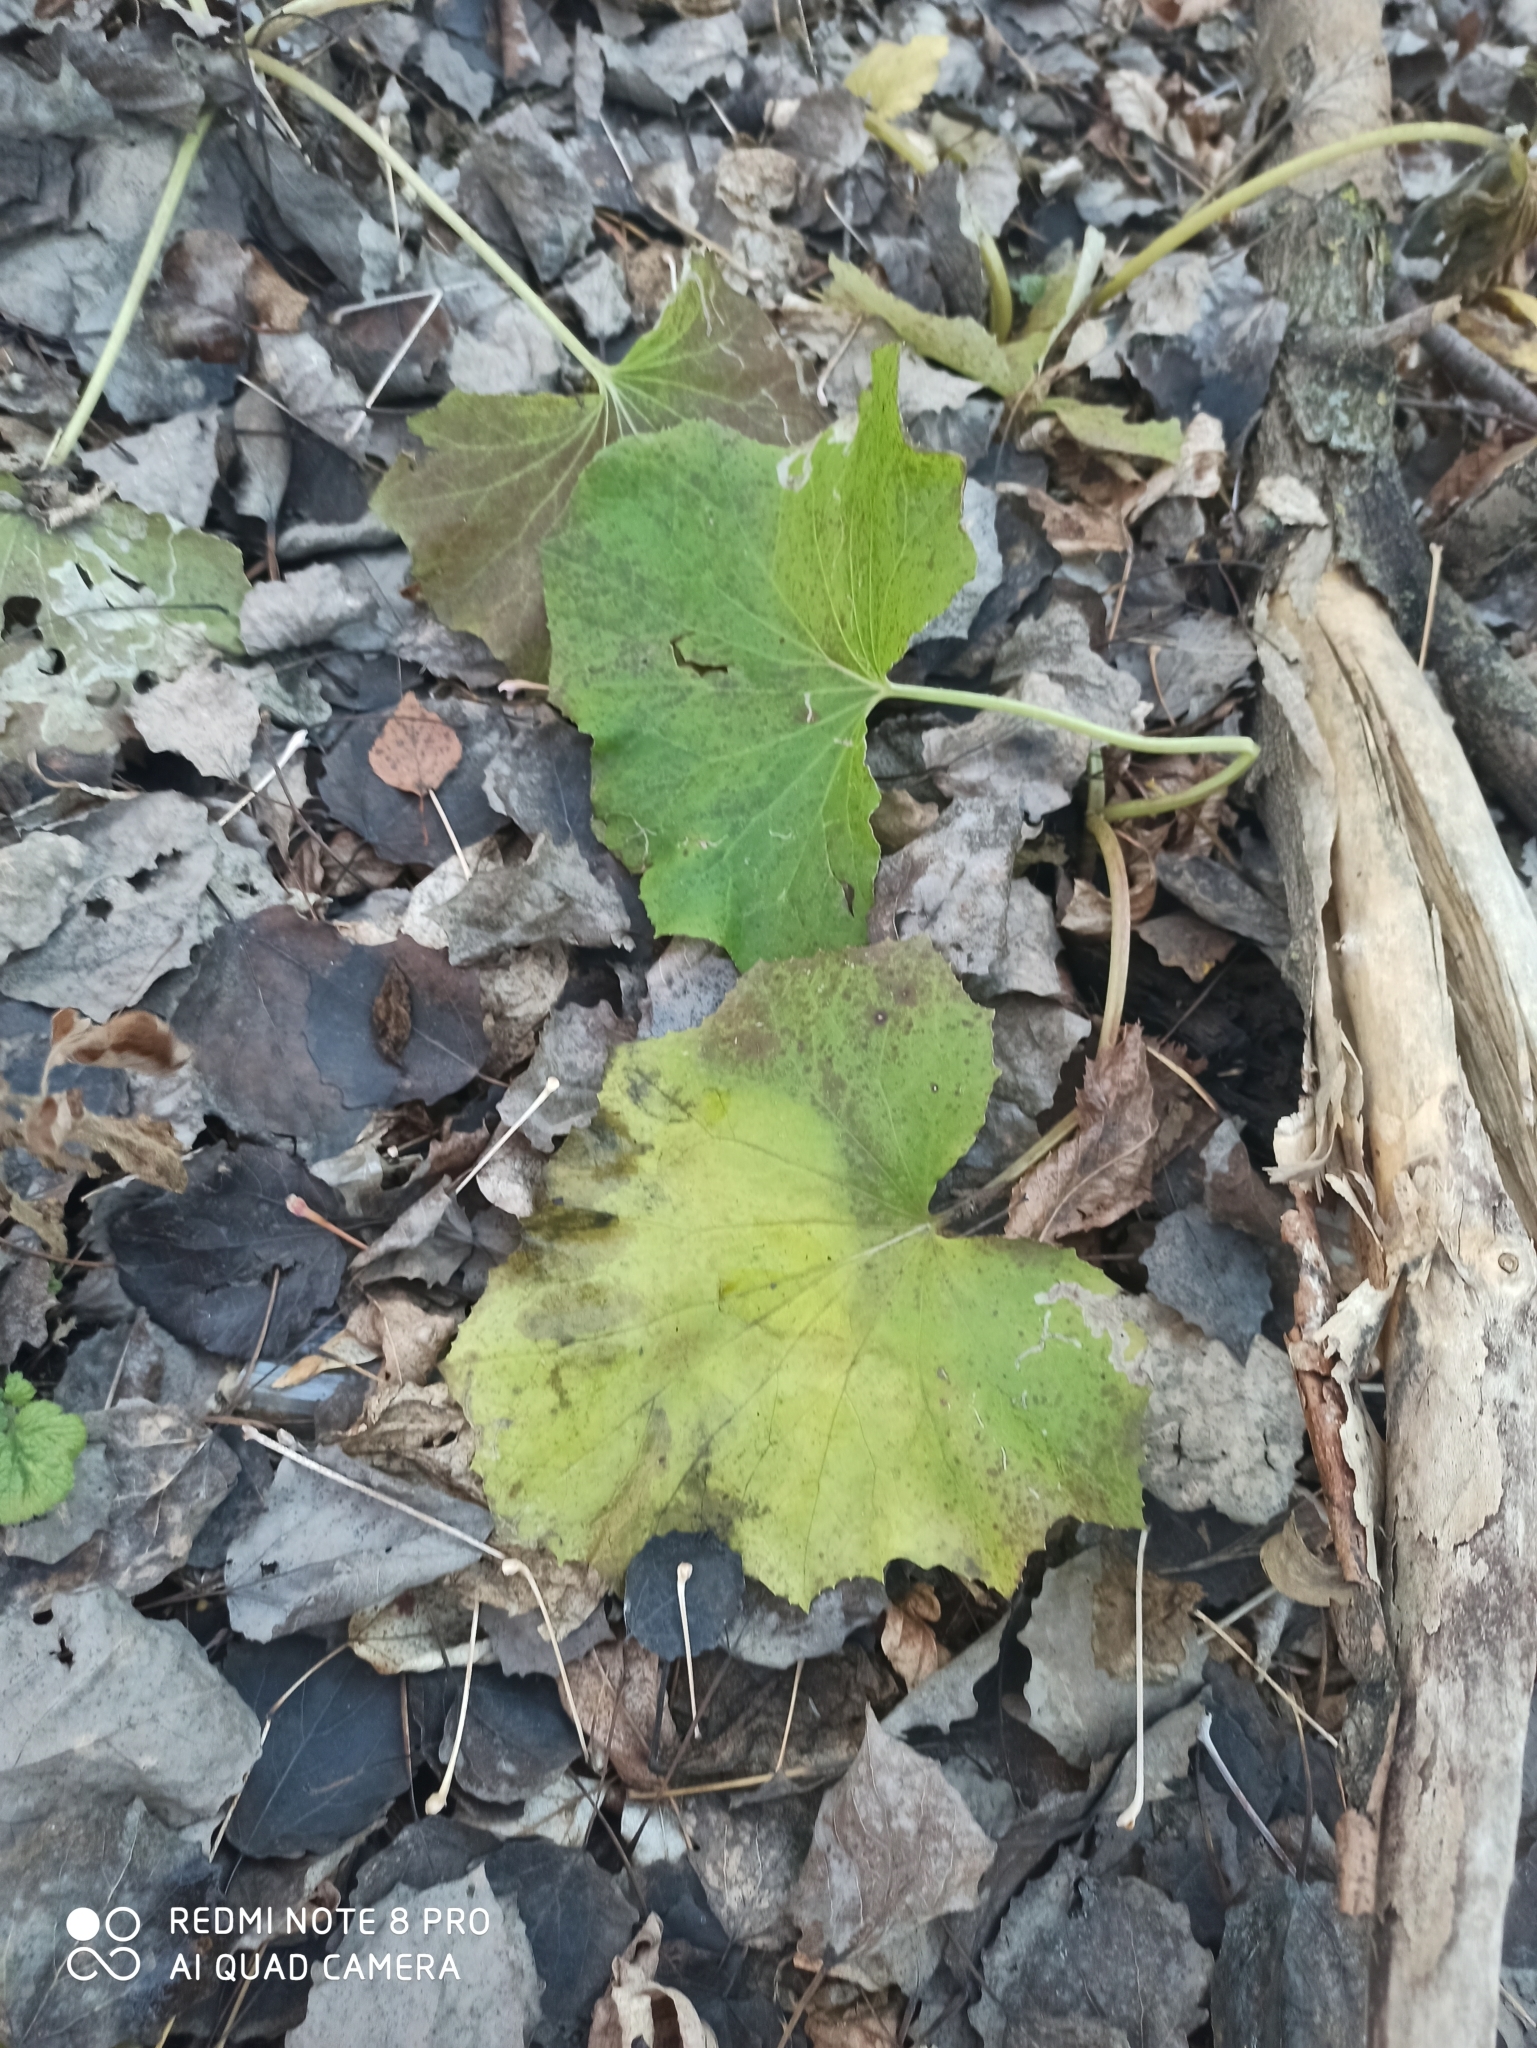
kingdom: Plantae
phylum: Tracheophyta
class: Magnoliopsida
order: Asterales
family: Asteraceae
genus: Tussilago
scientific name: Tussilago farfara
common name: Coltsfoot
